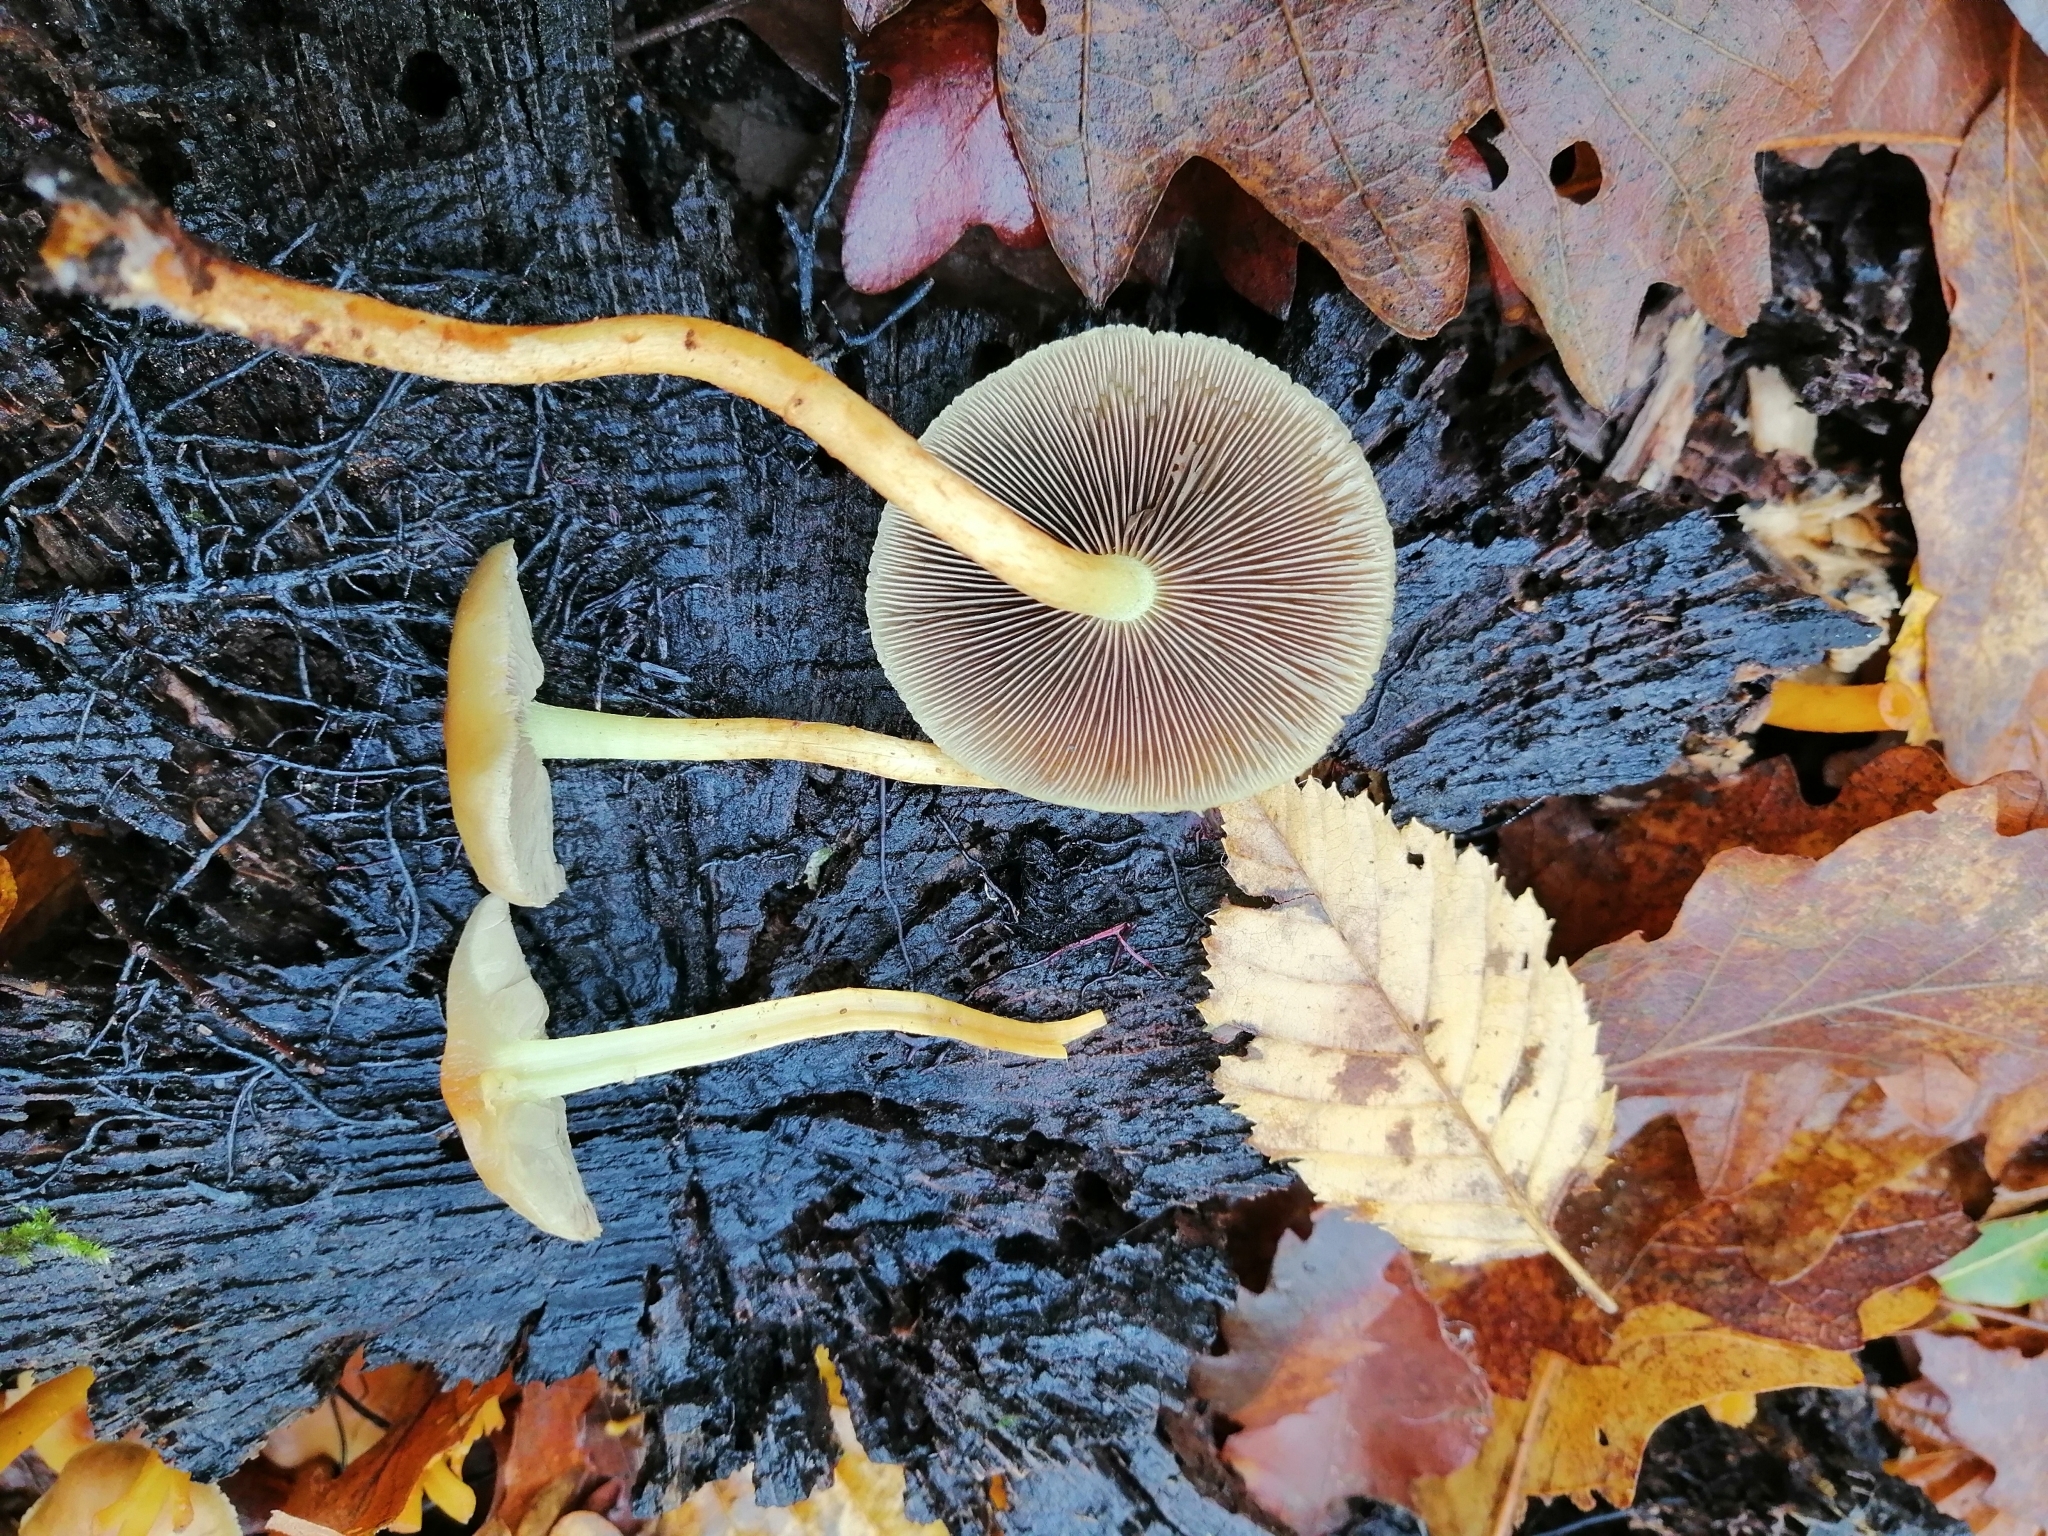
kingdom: Fungi
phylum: Basidiomycota
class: Agaricomycetes
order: Agaricales
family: Strophariaceae
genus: Hypholoma
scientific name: Hypholoma fasciculare
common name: Sulphur tuft
